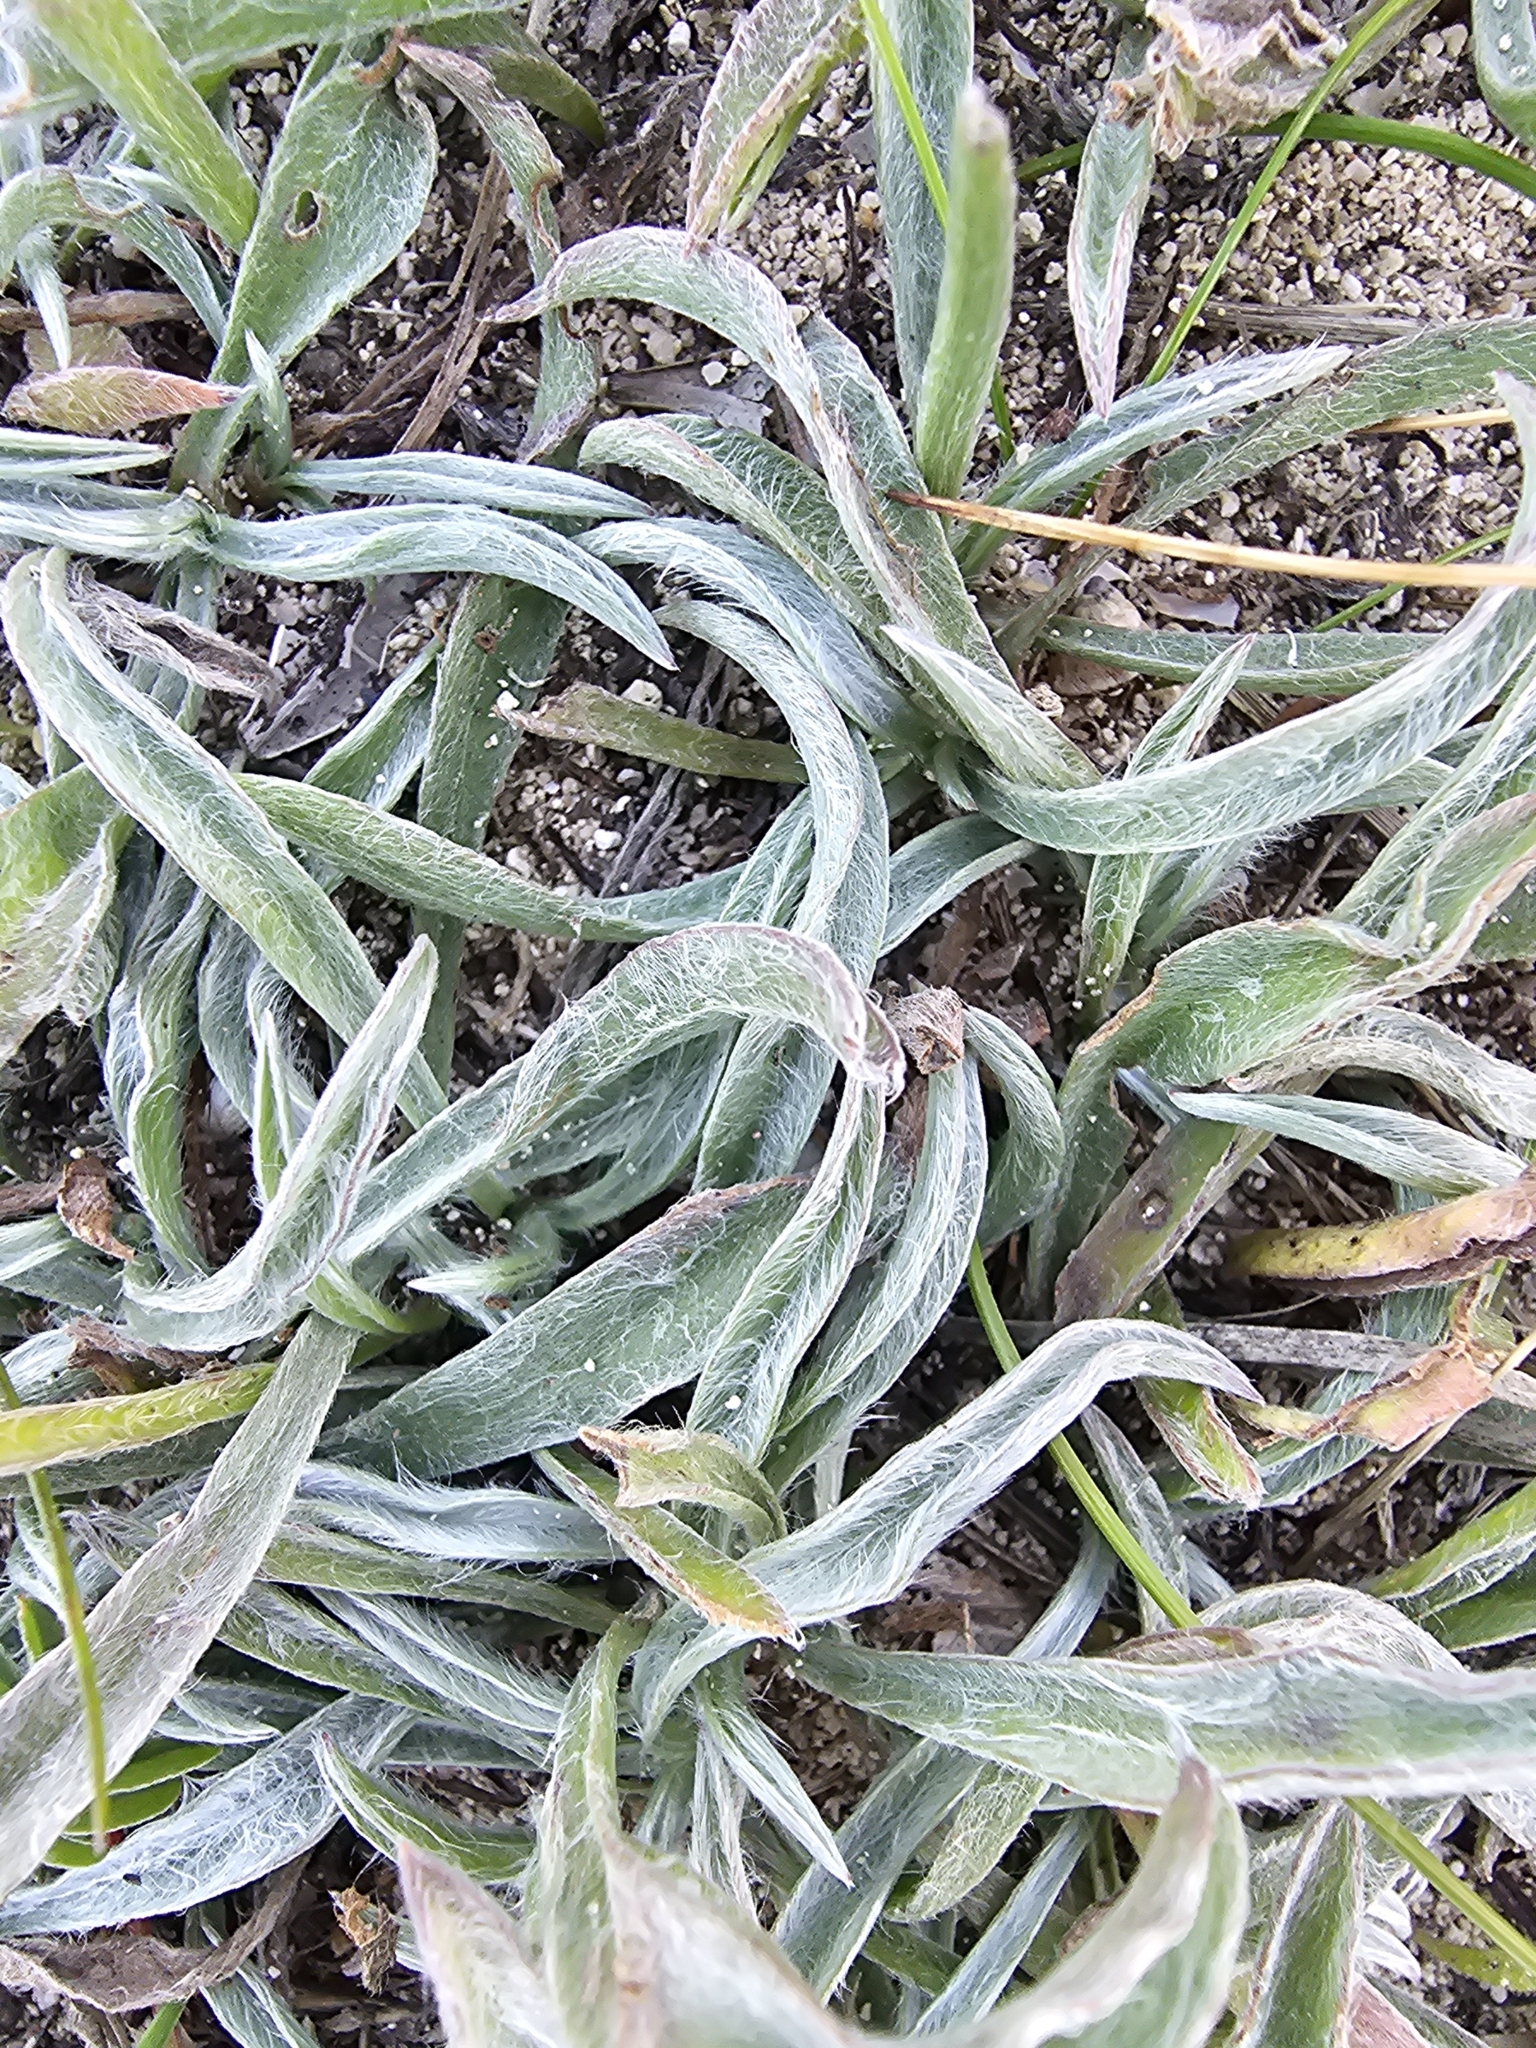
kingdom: Plantae
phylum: Tracheophyta
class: Magnoliopsida
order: Lamiales
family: Plantaginaceae
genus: Plantago
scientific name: Plantago albicans
